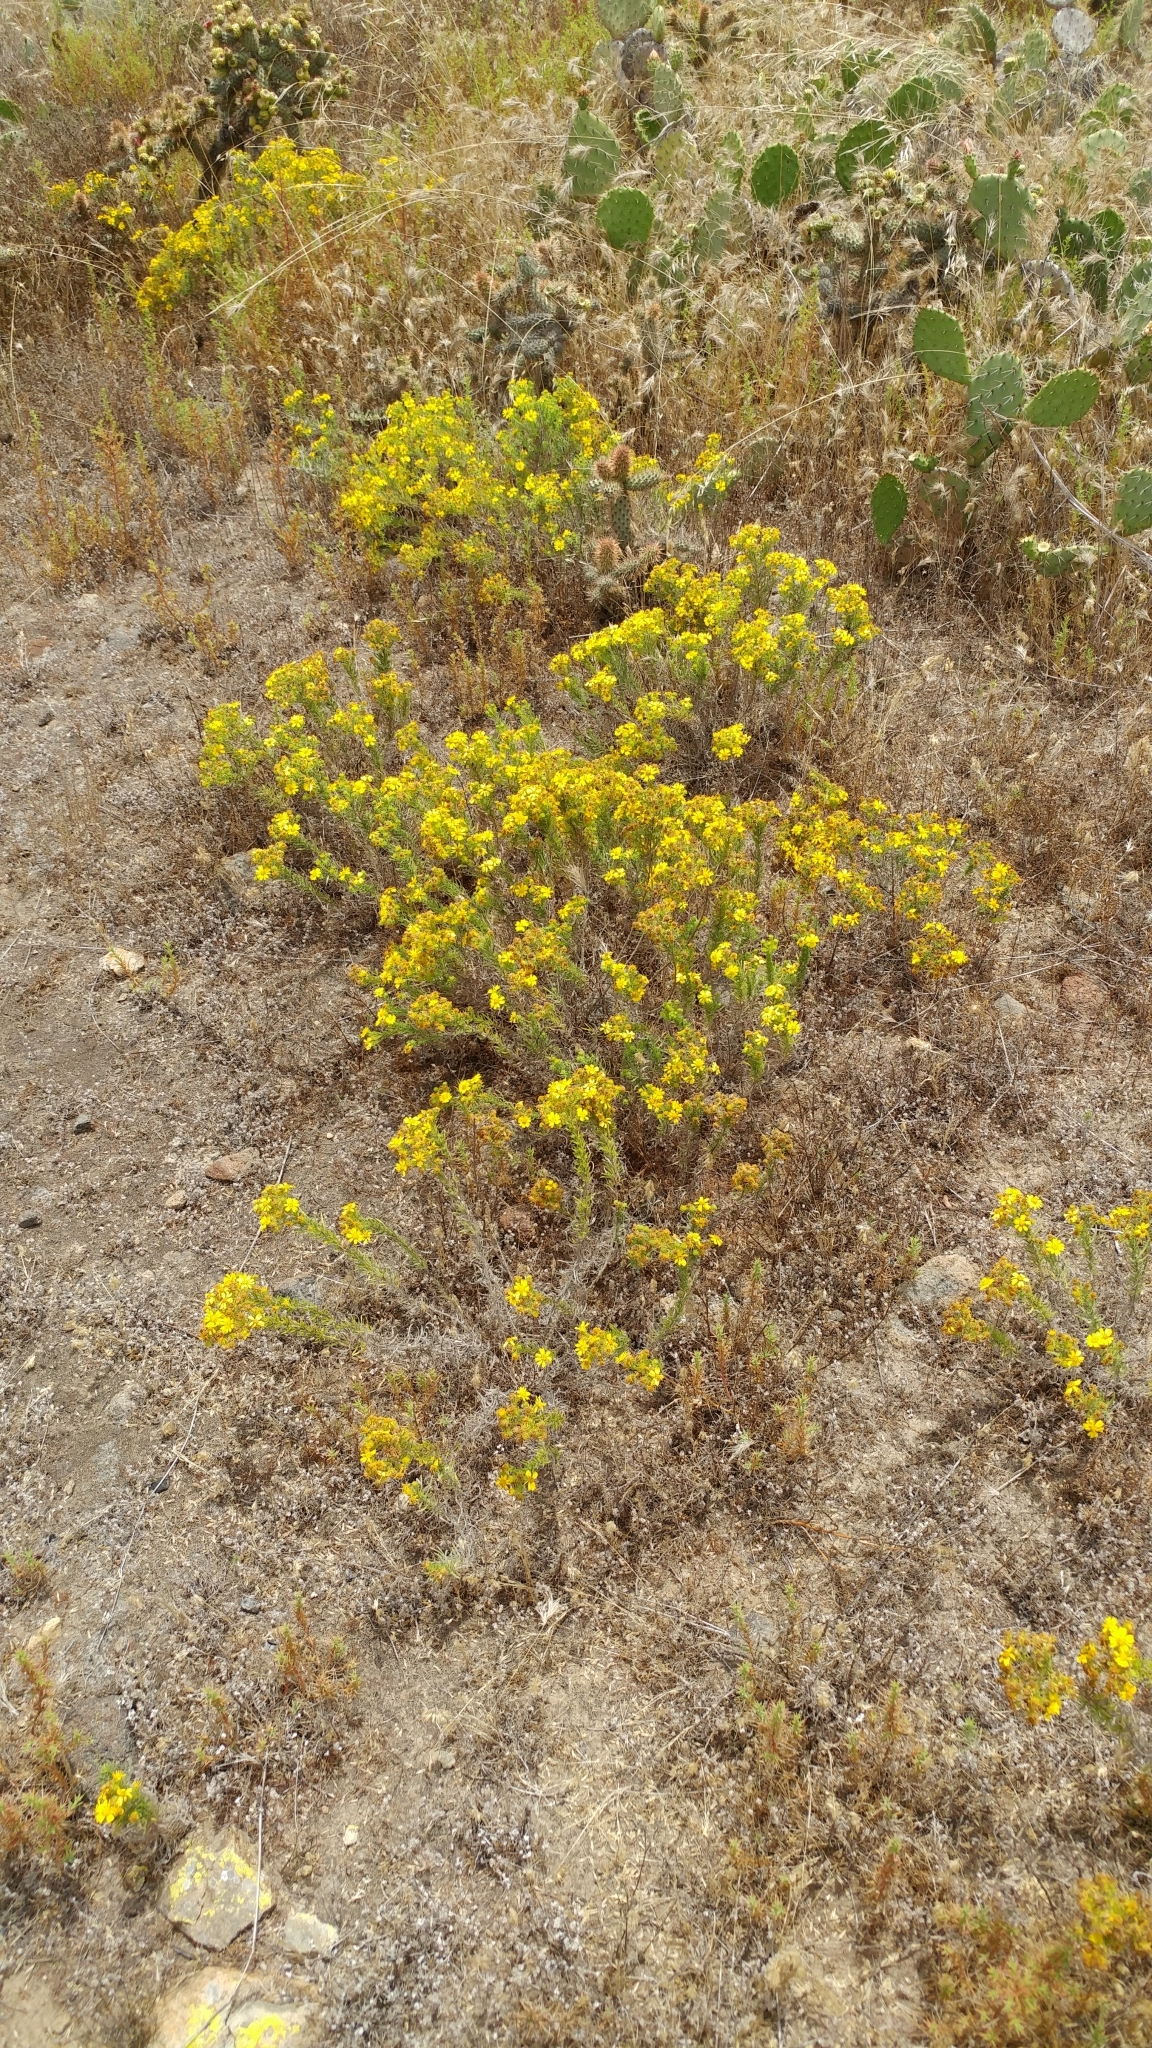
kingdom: Plantae
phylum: Tracheophyta
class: Magnoliopsida
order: Asterales
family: Asteraceae
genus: Deinandra
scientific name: Deinandra clementina
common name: Island tarplant
